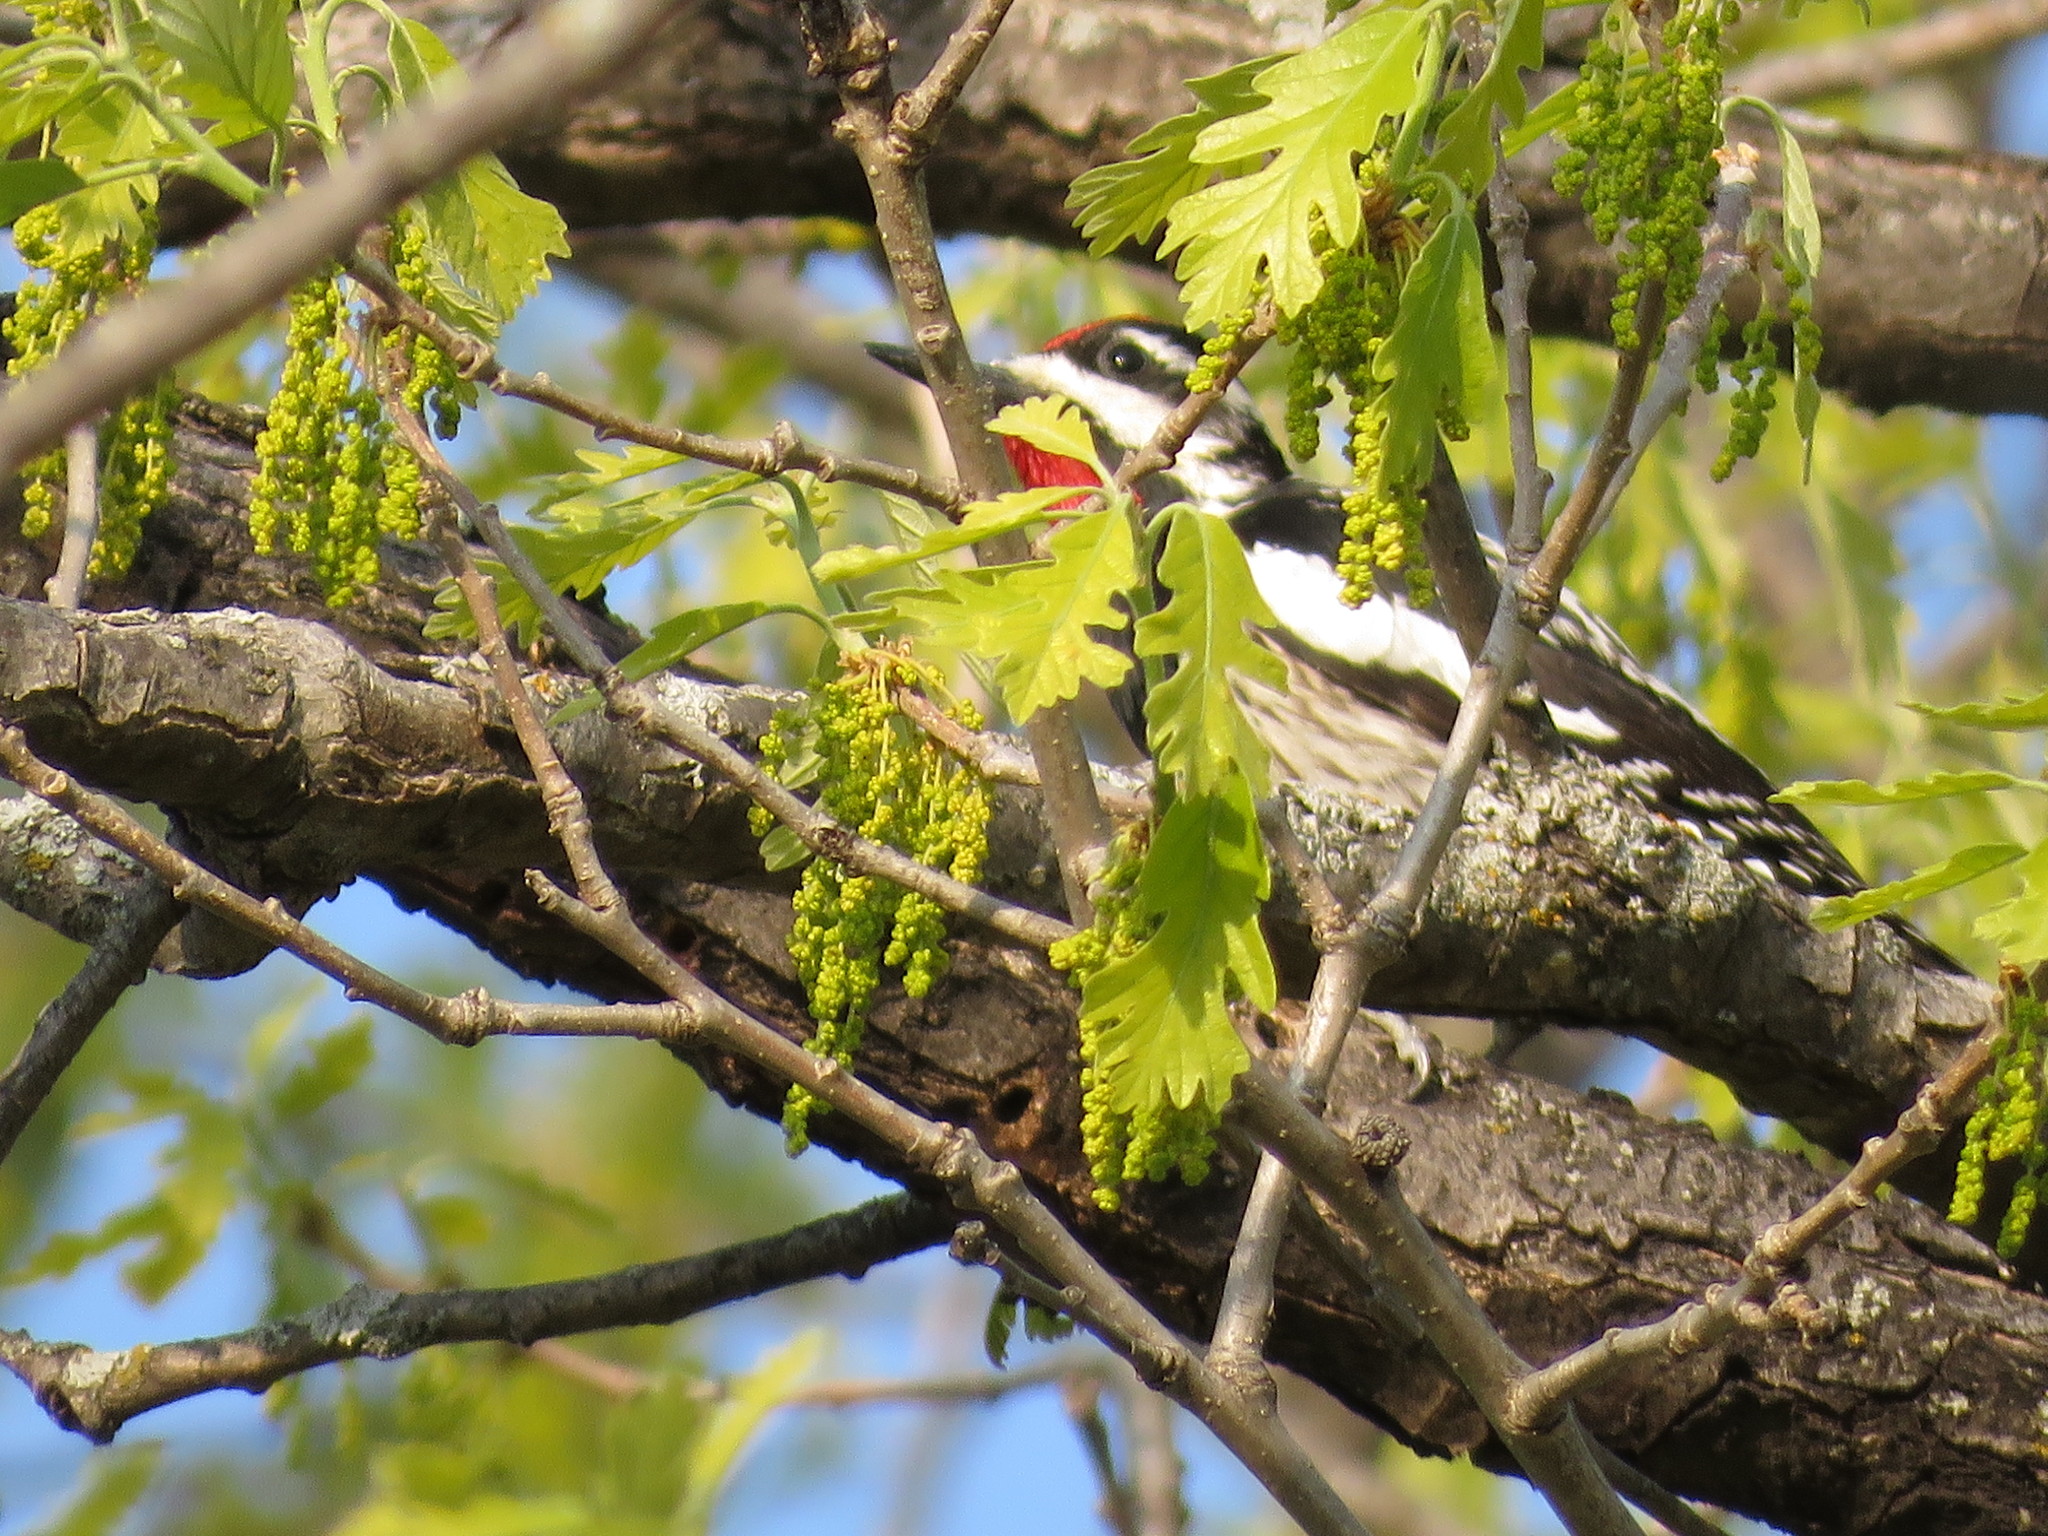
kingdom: Animalia
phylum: Chordata
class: Aves
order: Piciformes
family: Picidae
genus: Sphyrapicus
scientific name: Sphyrapicus varius
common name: Yellow-bellied sapsucker
